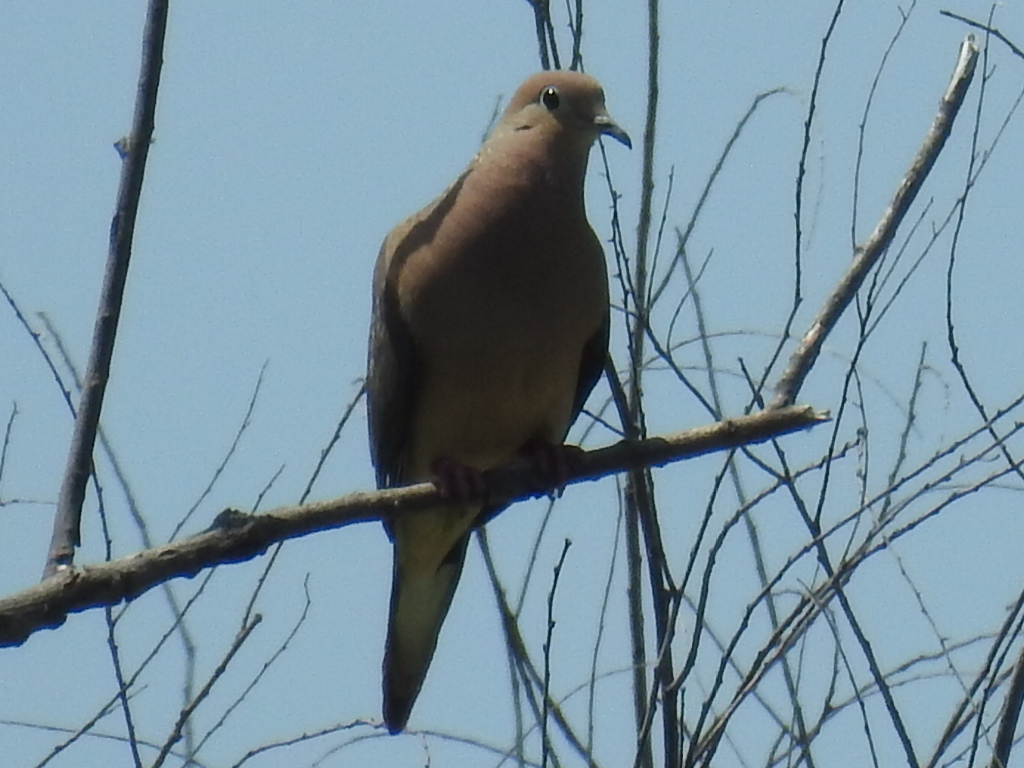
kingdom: Animalia
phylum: Chordata
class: Aves
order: Columbiformes
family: Columbidae
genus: Zenaida
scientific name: Zenaida macroura
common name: Mourning dove
